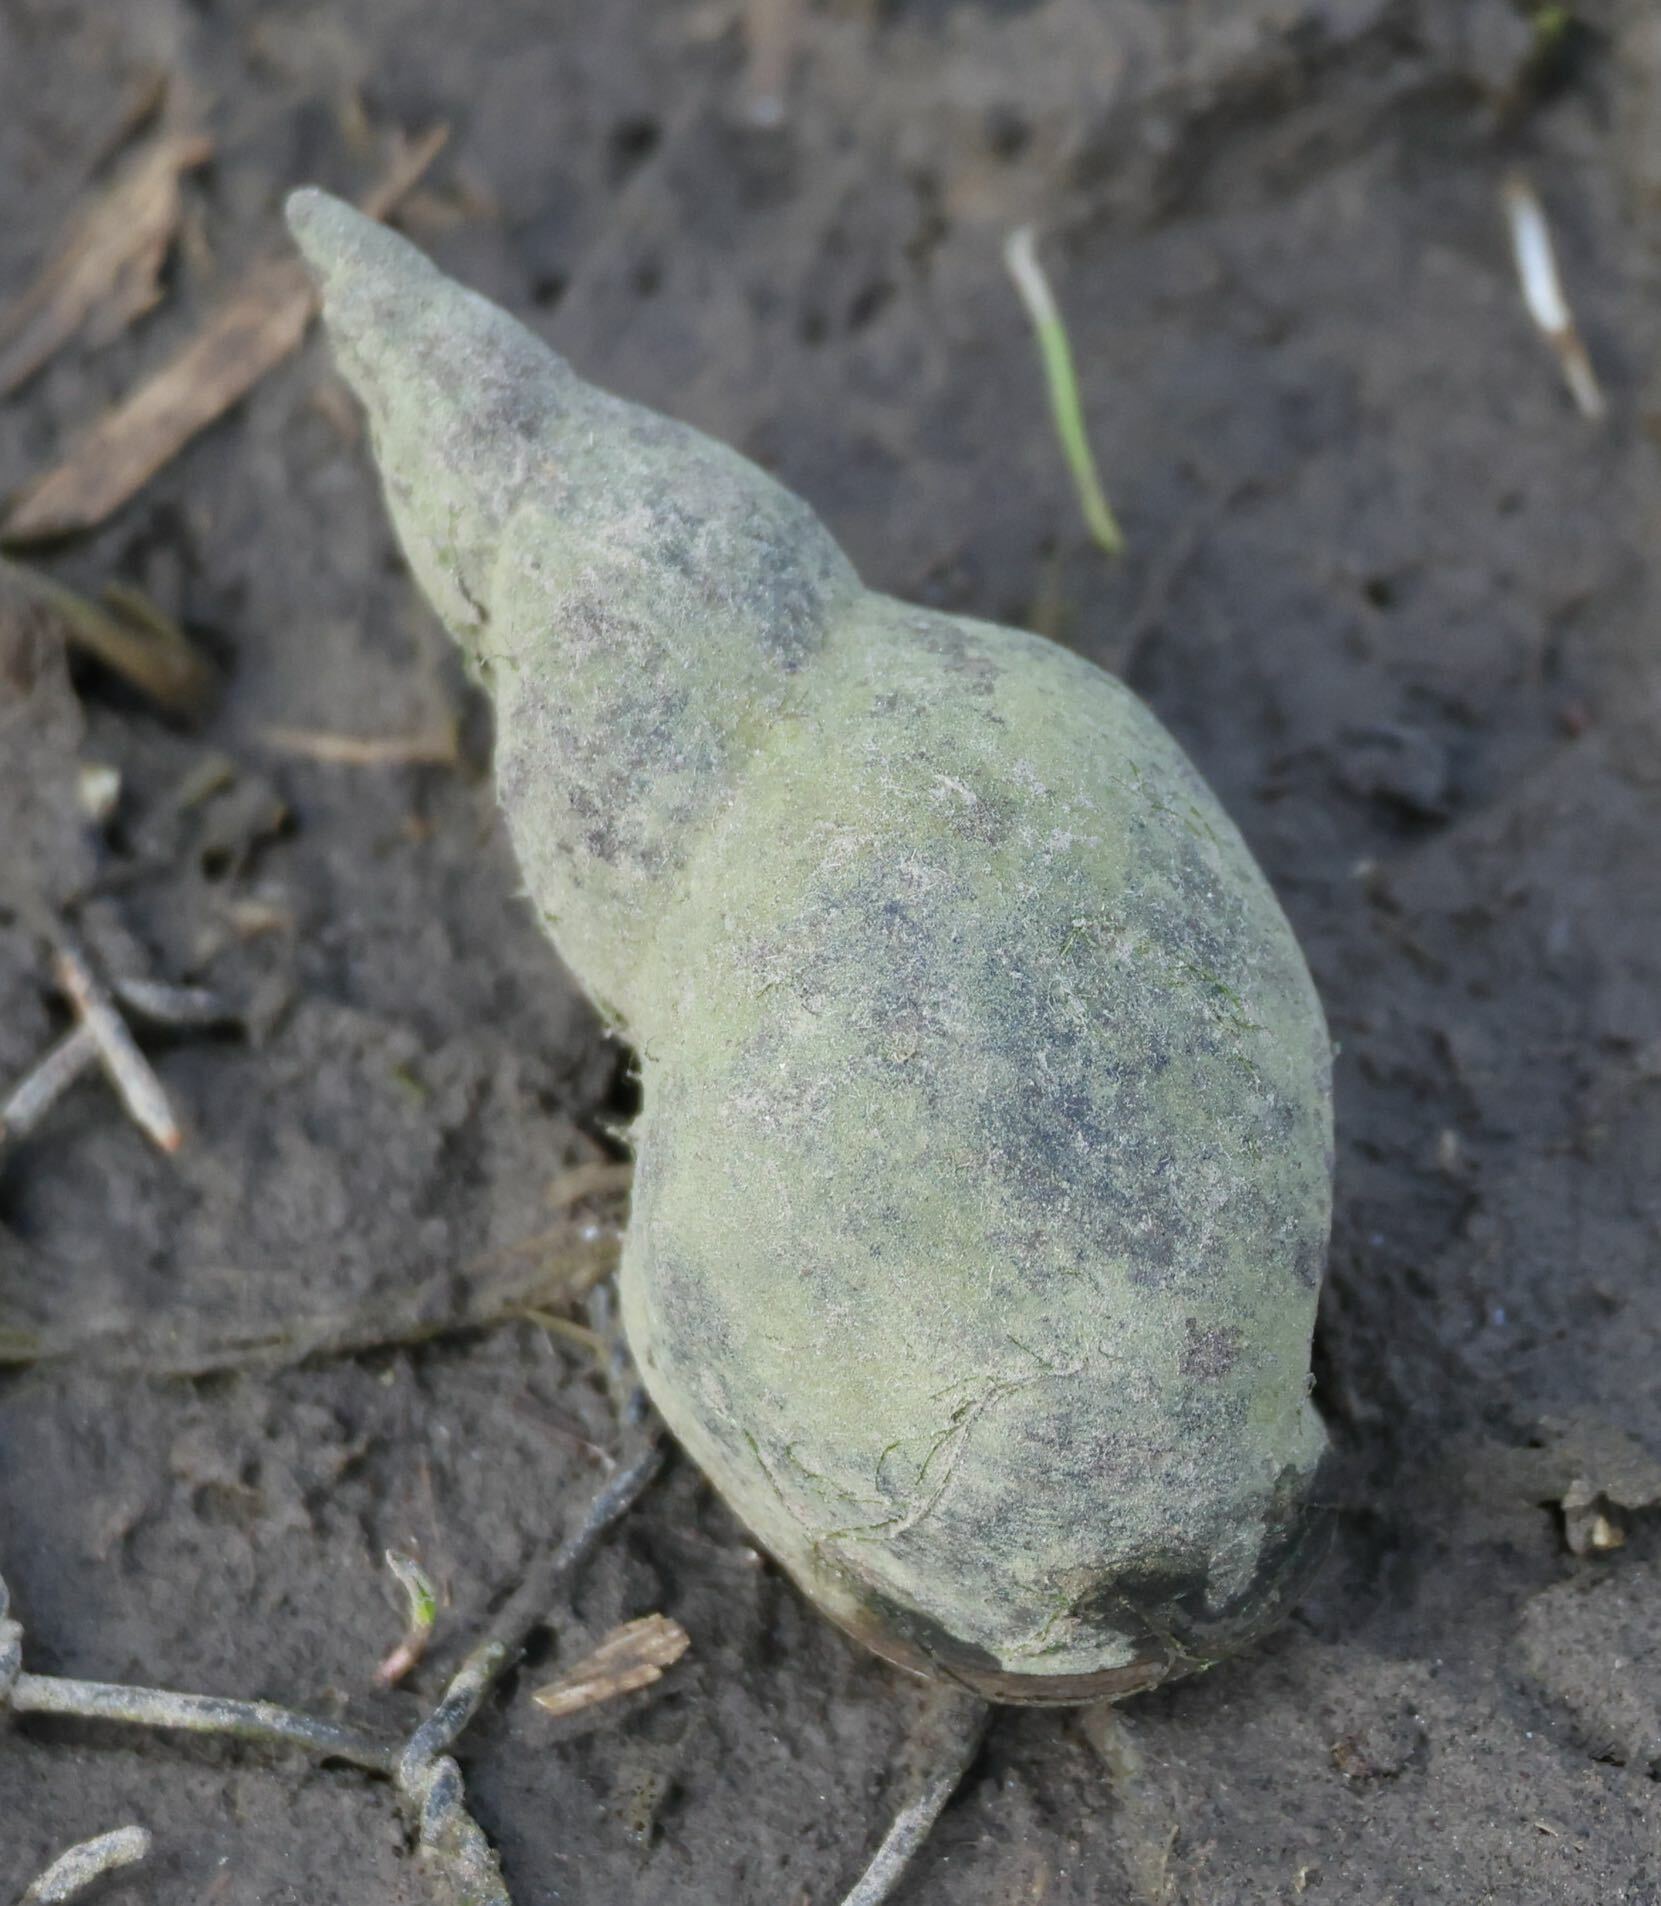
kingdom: Animalia
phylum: Mollusca
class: Gastropoda
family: Lymnaeidae
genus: Lymnaea
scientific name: Lymnaea stagnalis
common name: Great pond snail
